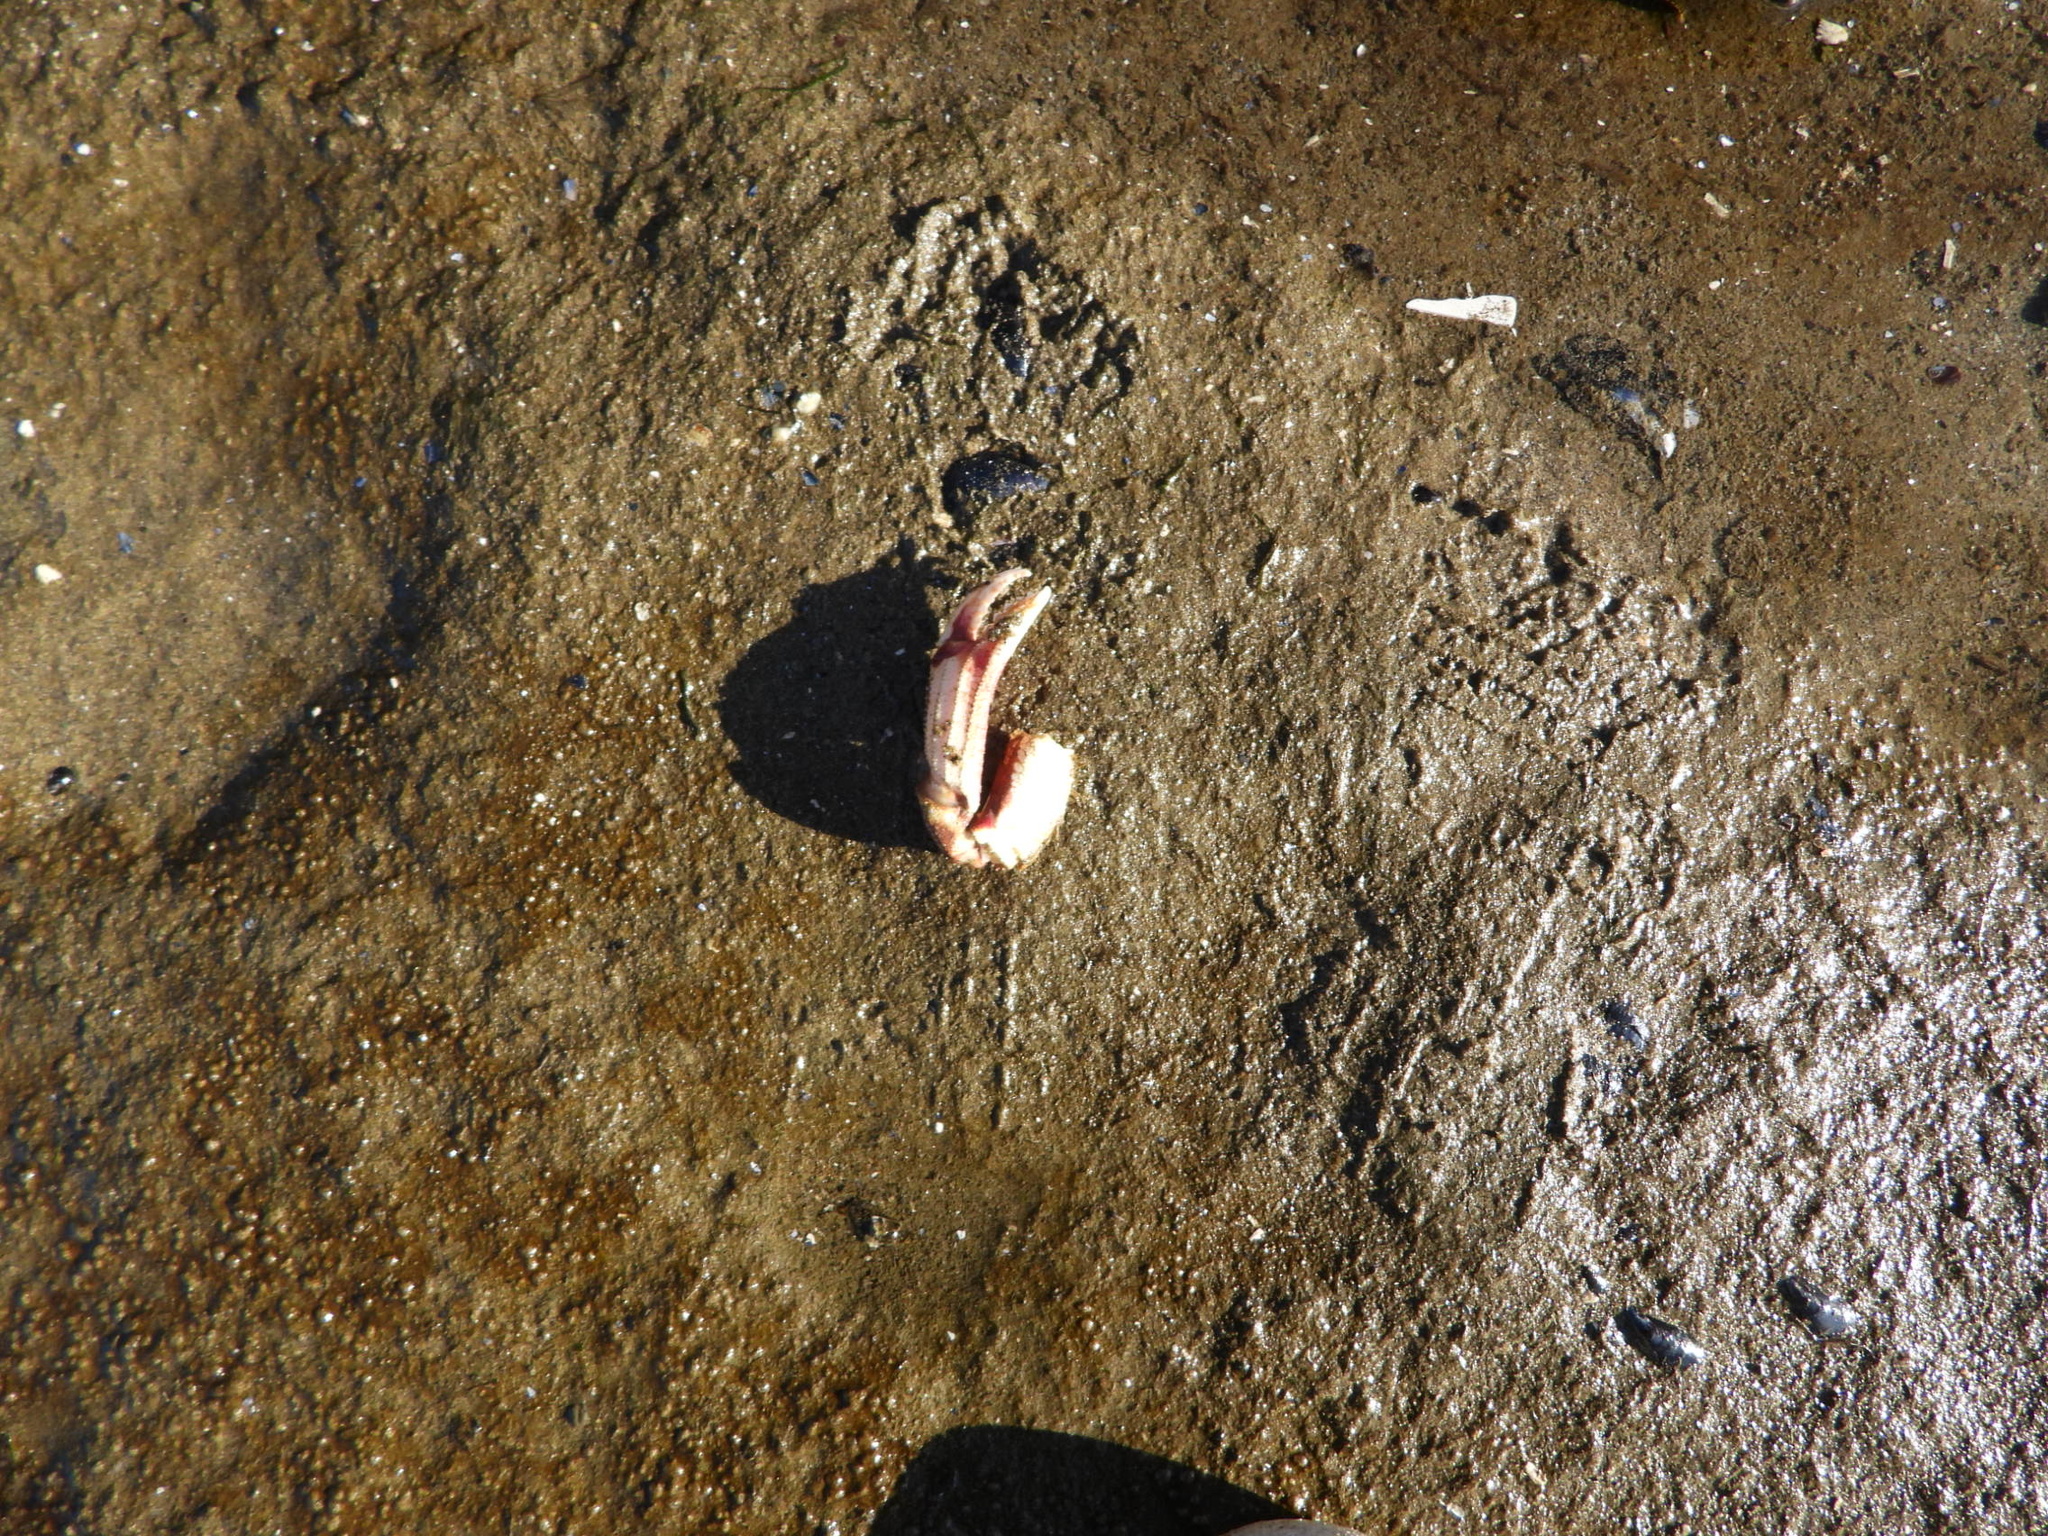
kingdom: Animalia
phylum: Arthropoda
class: Malacostraca
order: Decapoda
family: Cancridae
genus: Metacarcinus
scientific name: Metacarcinus magister
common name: Californian crab
